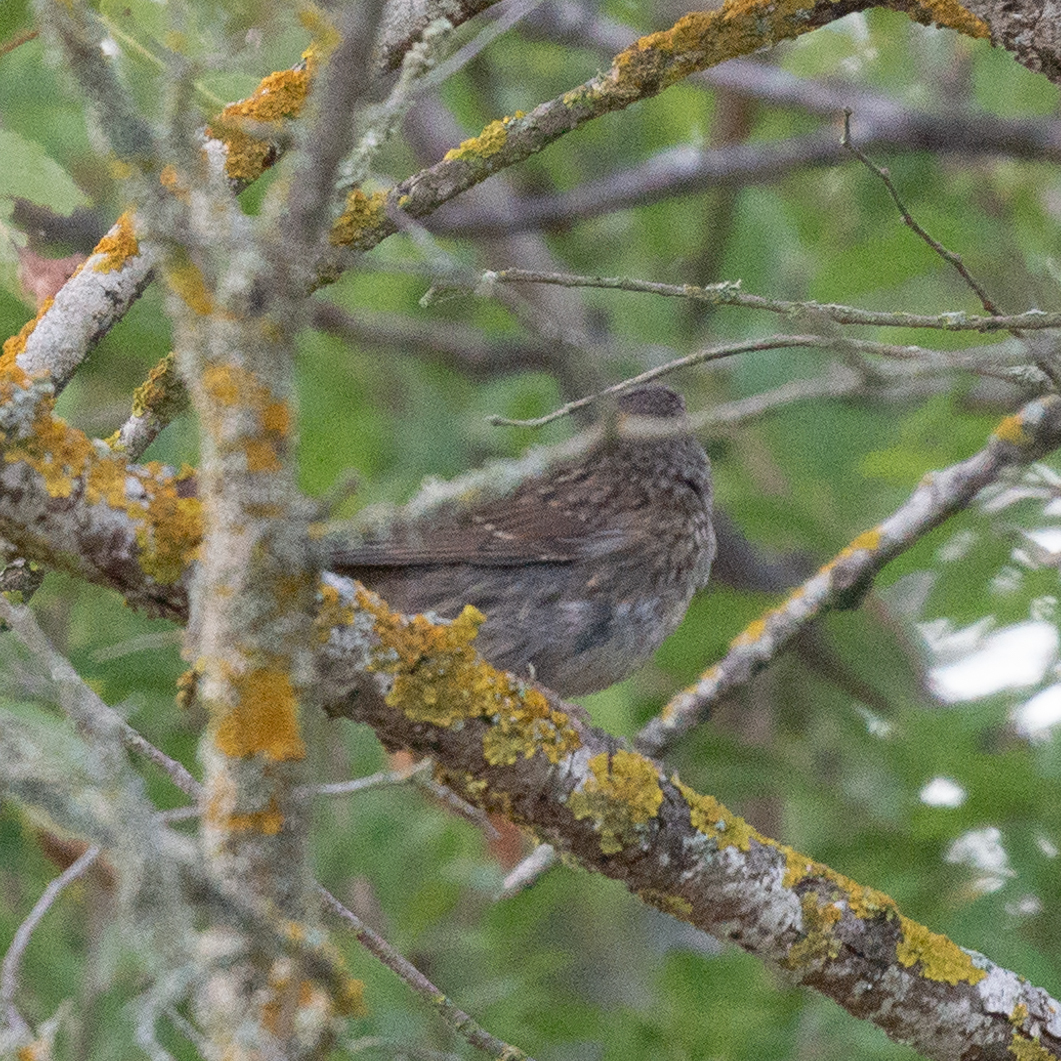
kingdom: Animalia
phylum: Chordata
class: Aves
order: Passeriformes
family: Prunellidae
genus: Prunella
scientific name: Prunella modularis
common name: Dunnock
